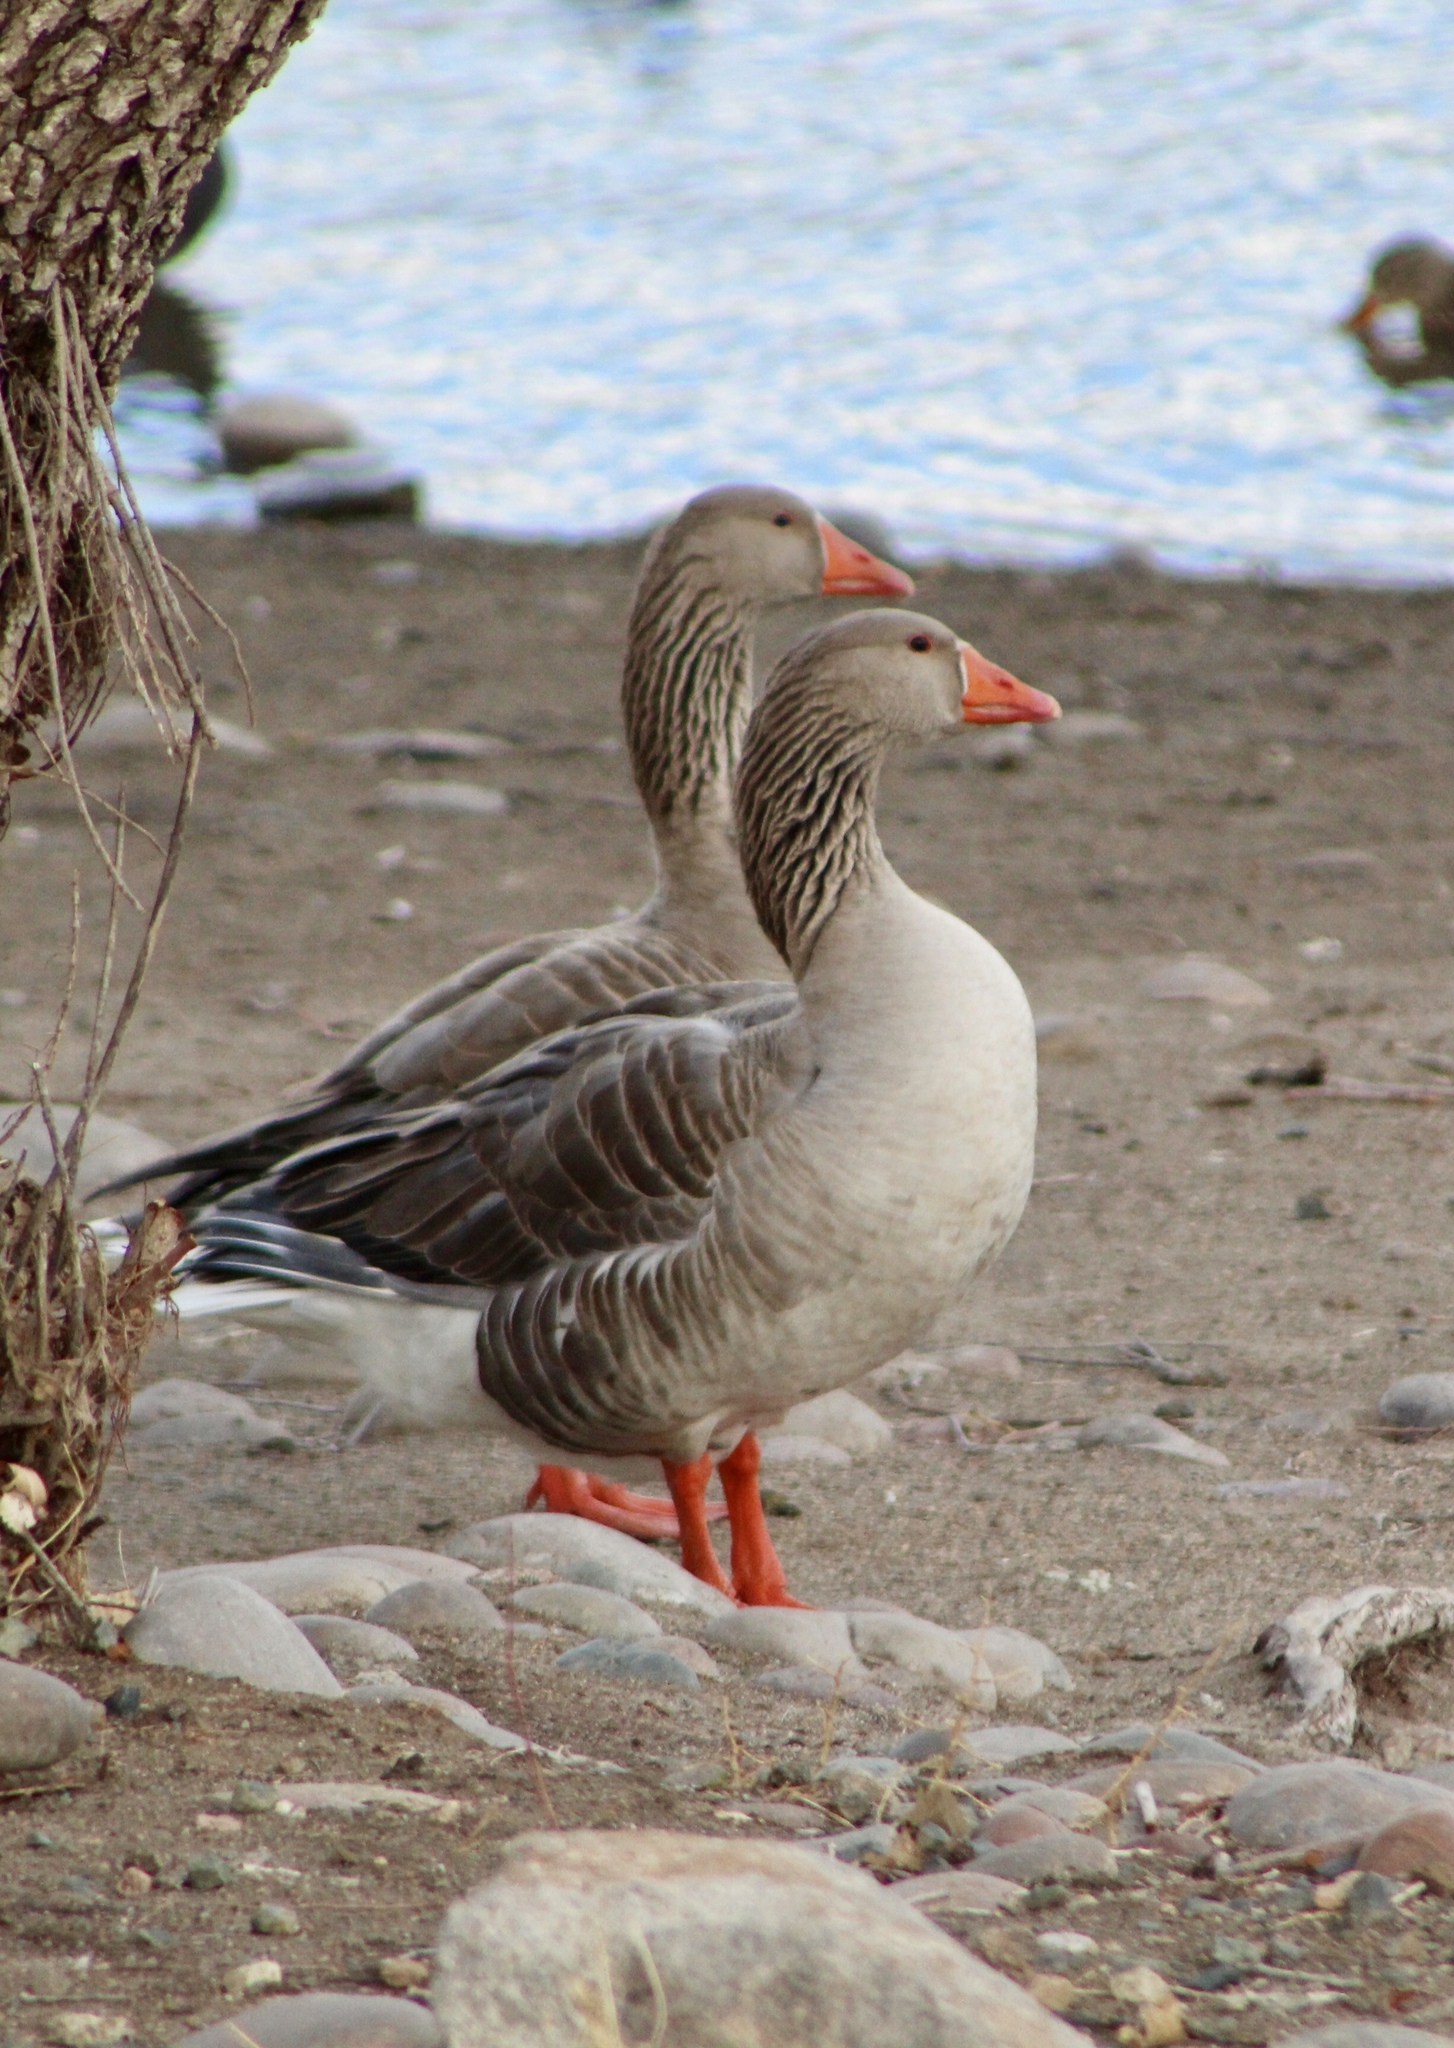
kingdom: Animalia
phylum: Chordata
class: Aves
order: Anseriformes
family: Anatidae
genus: Anser
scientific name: Anser anser
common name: Greylag goose
